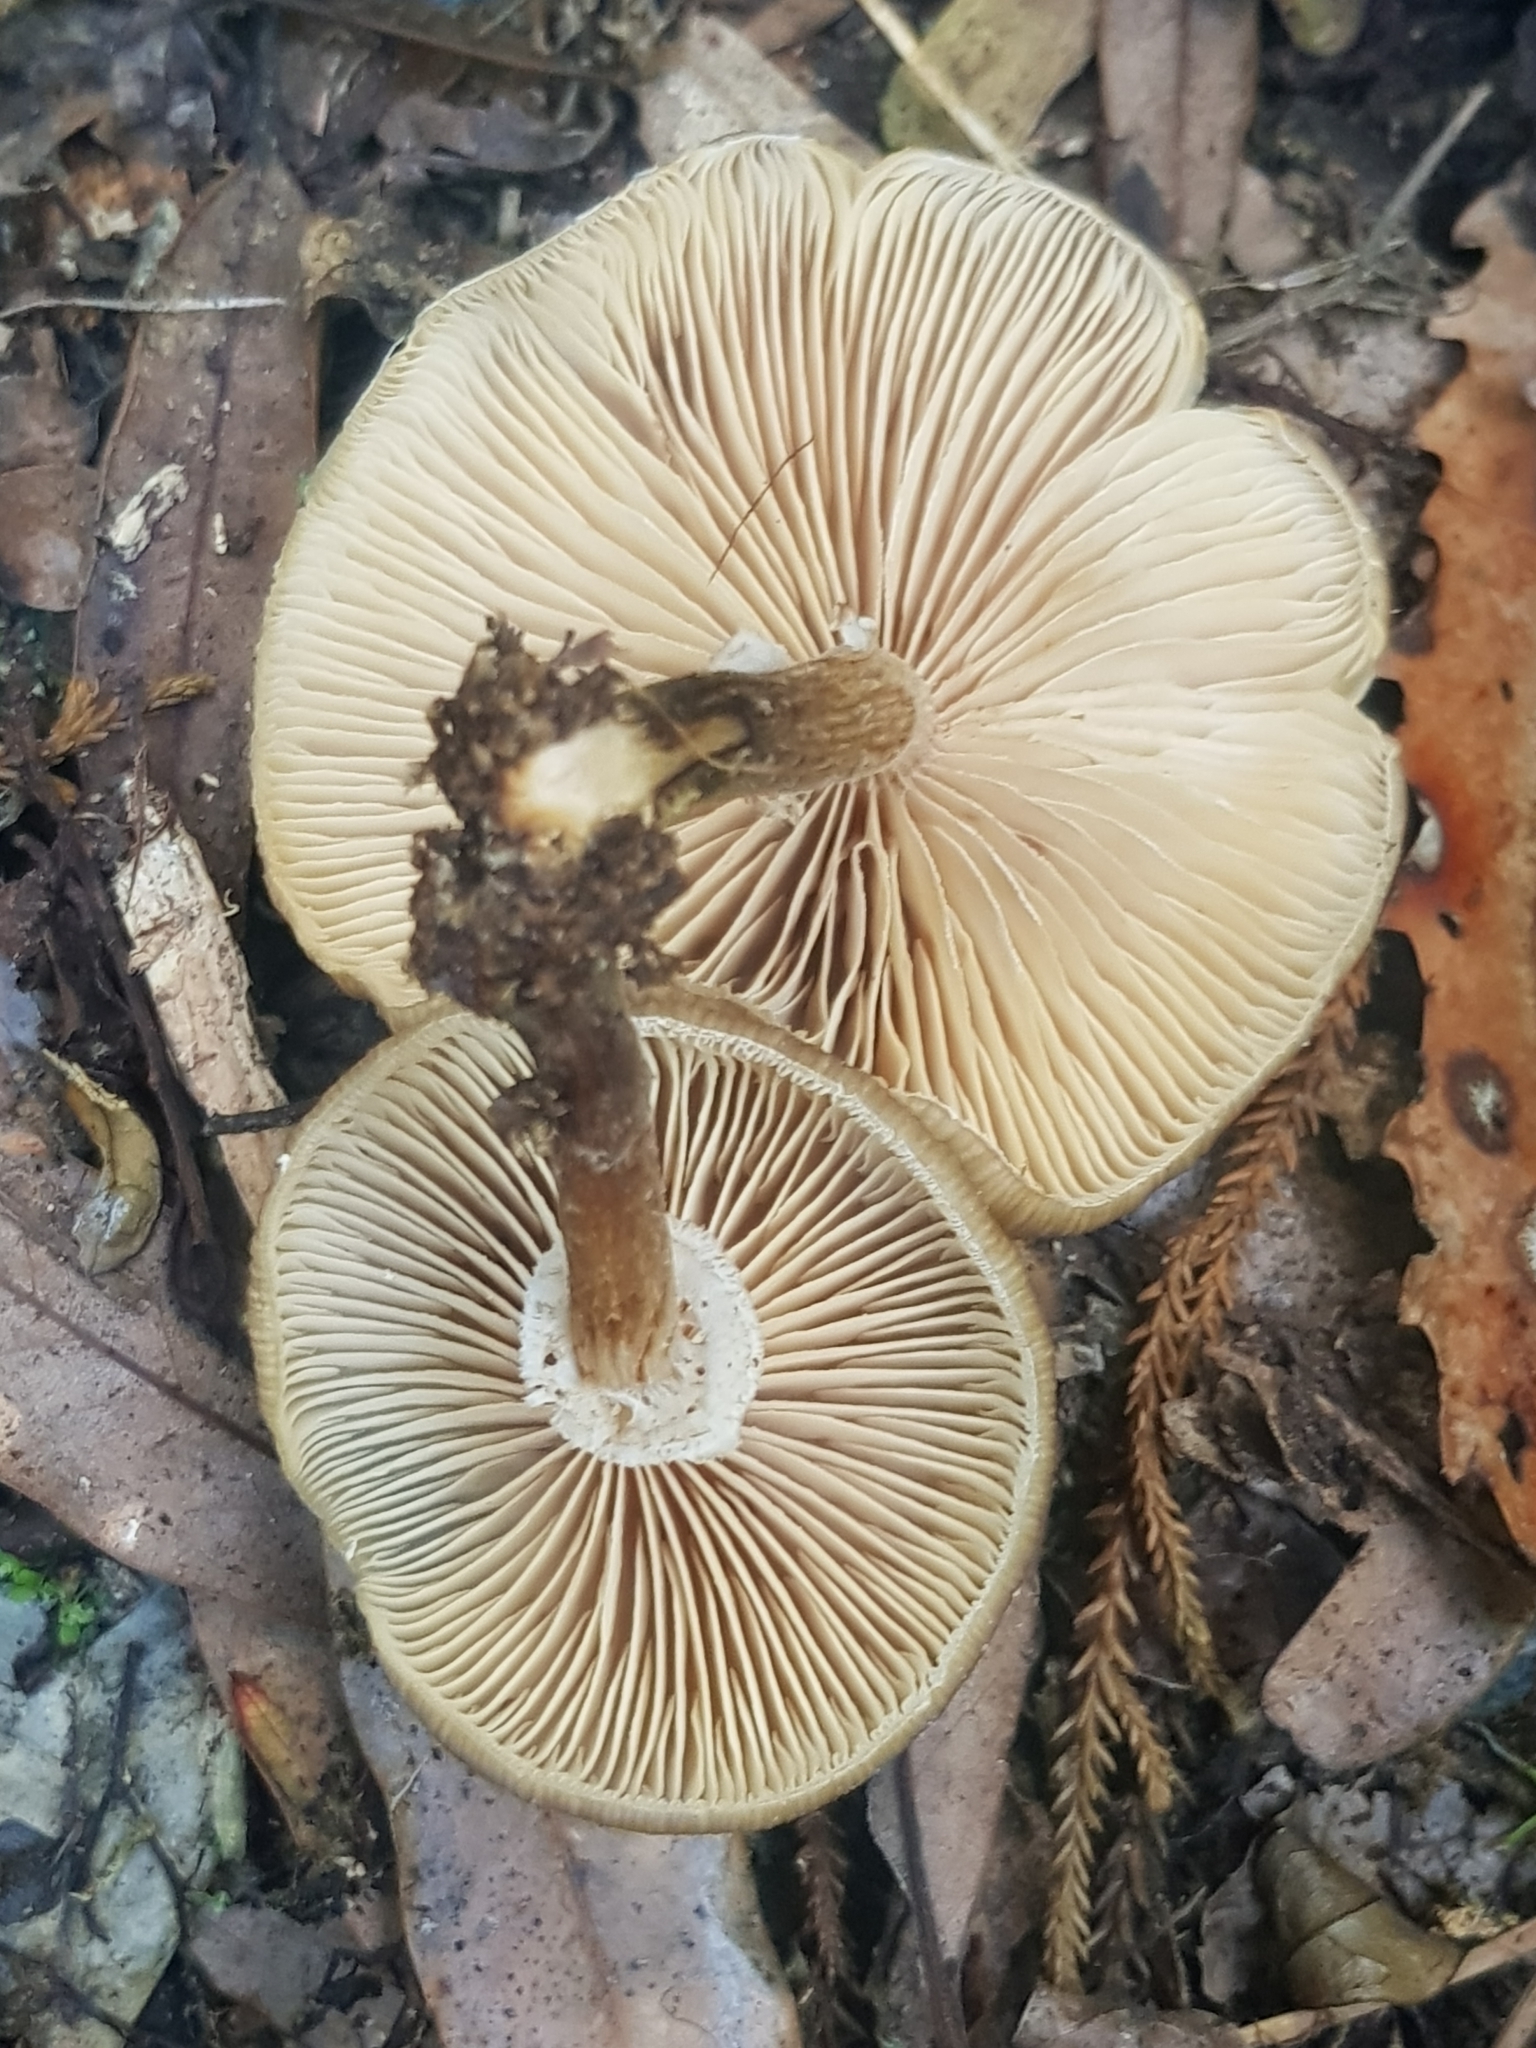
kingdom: Fungi
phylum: Basidiomycota
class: Agaricomycetes
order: Agaricales
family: Physalacriaceae
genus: Armillaria
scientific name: Armillaria novae-zelandiae
